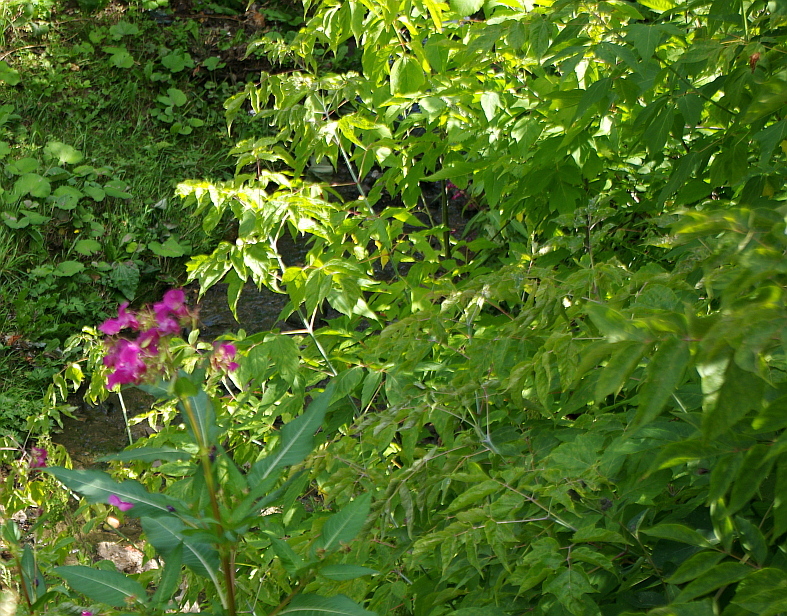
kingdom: Plantae
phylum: Tracheophyta
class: Magnoliopsida
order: Sapindales
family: Sapindaceae
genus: Acer
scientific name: Acer negundo
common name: Ashleaf maple
